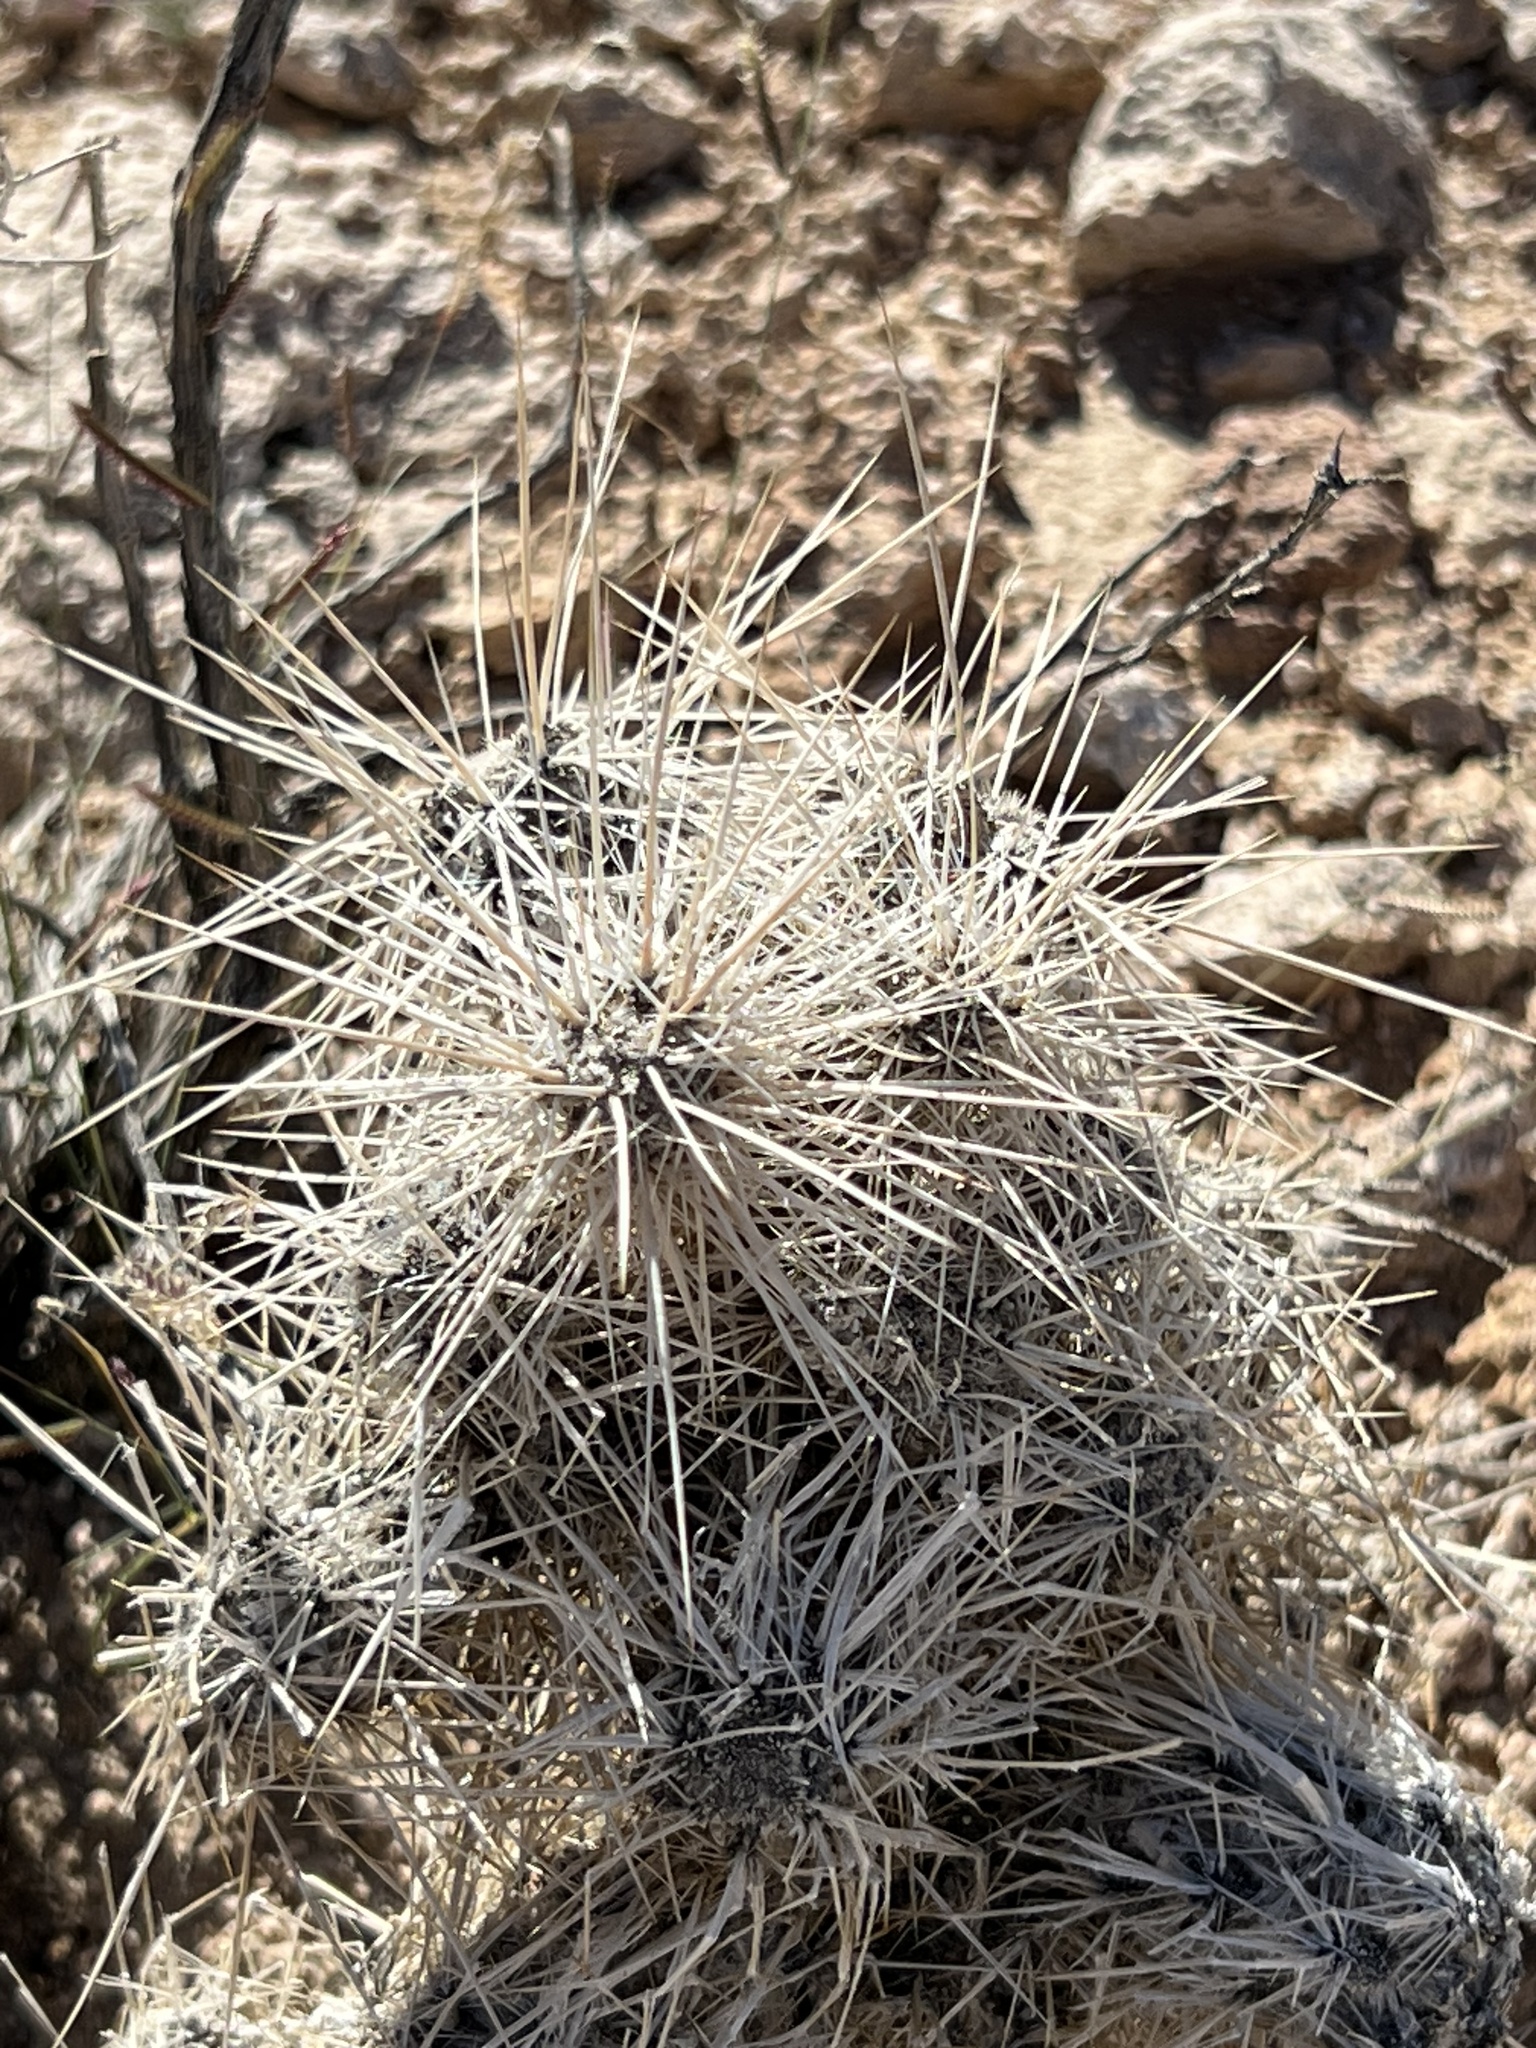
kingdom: Plantae
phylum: Tracheophyta
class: Magnoliopsida
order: Caryophyllales
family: Cactaceae
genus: Cylindropuntia
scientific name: Cylindropuntia echinocarpa
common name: Ground cholla
